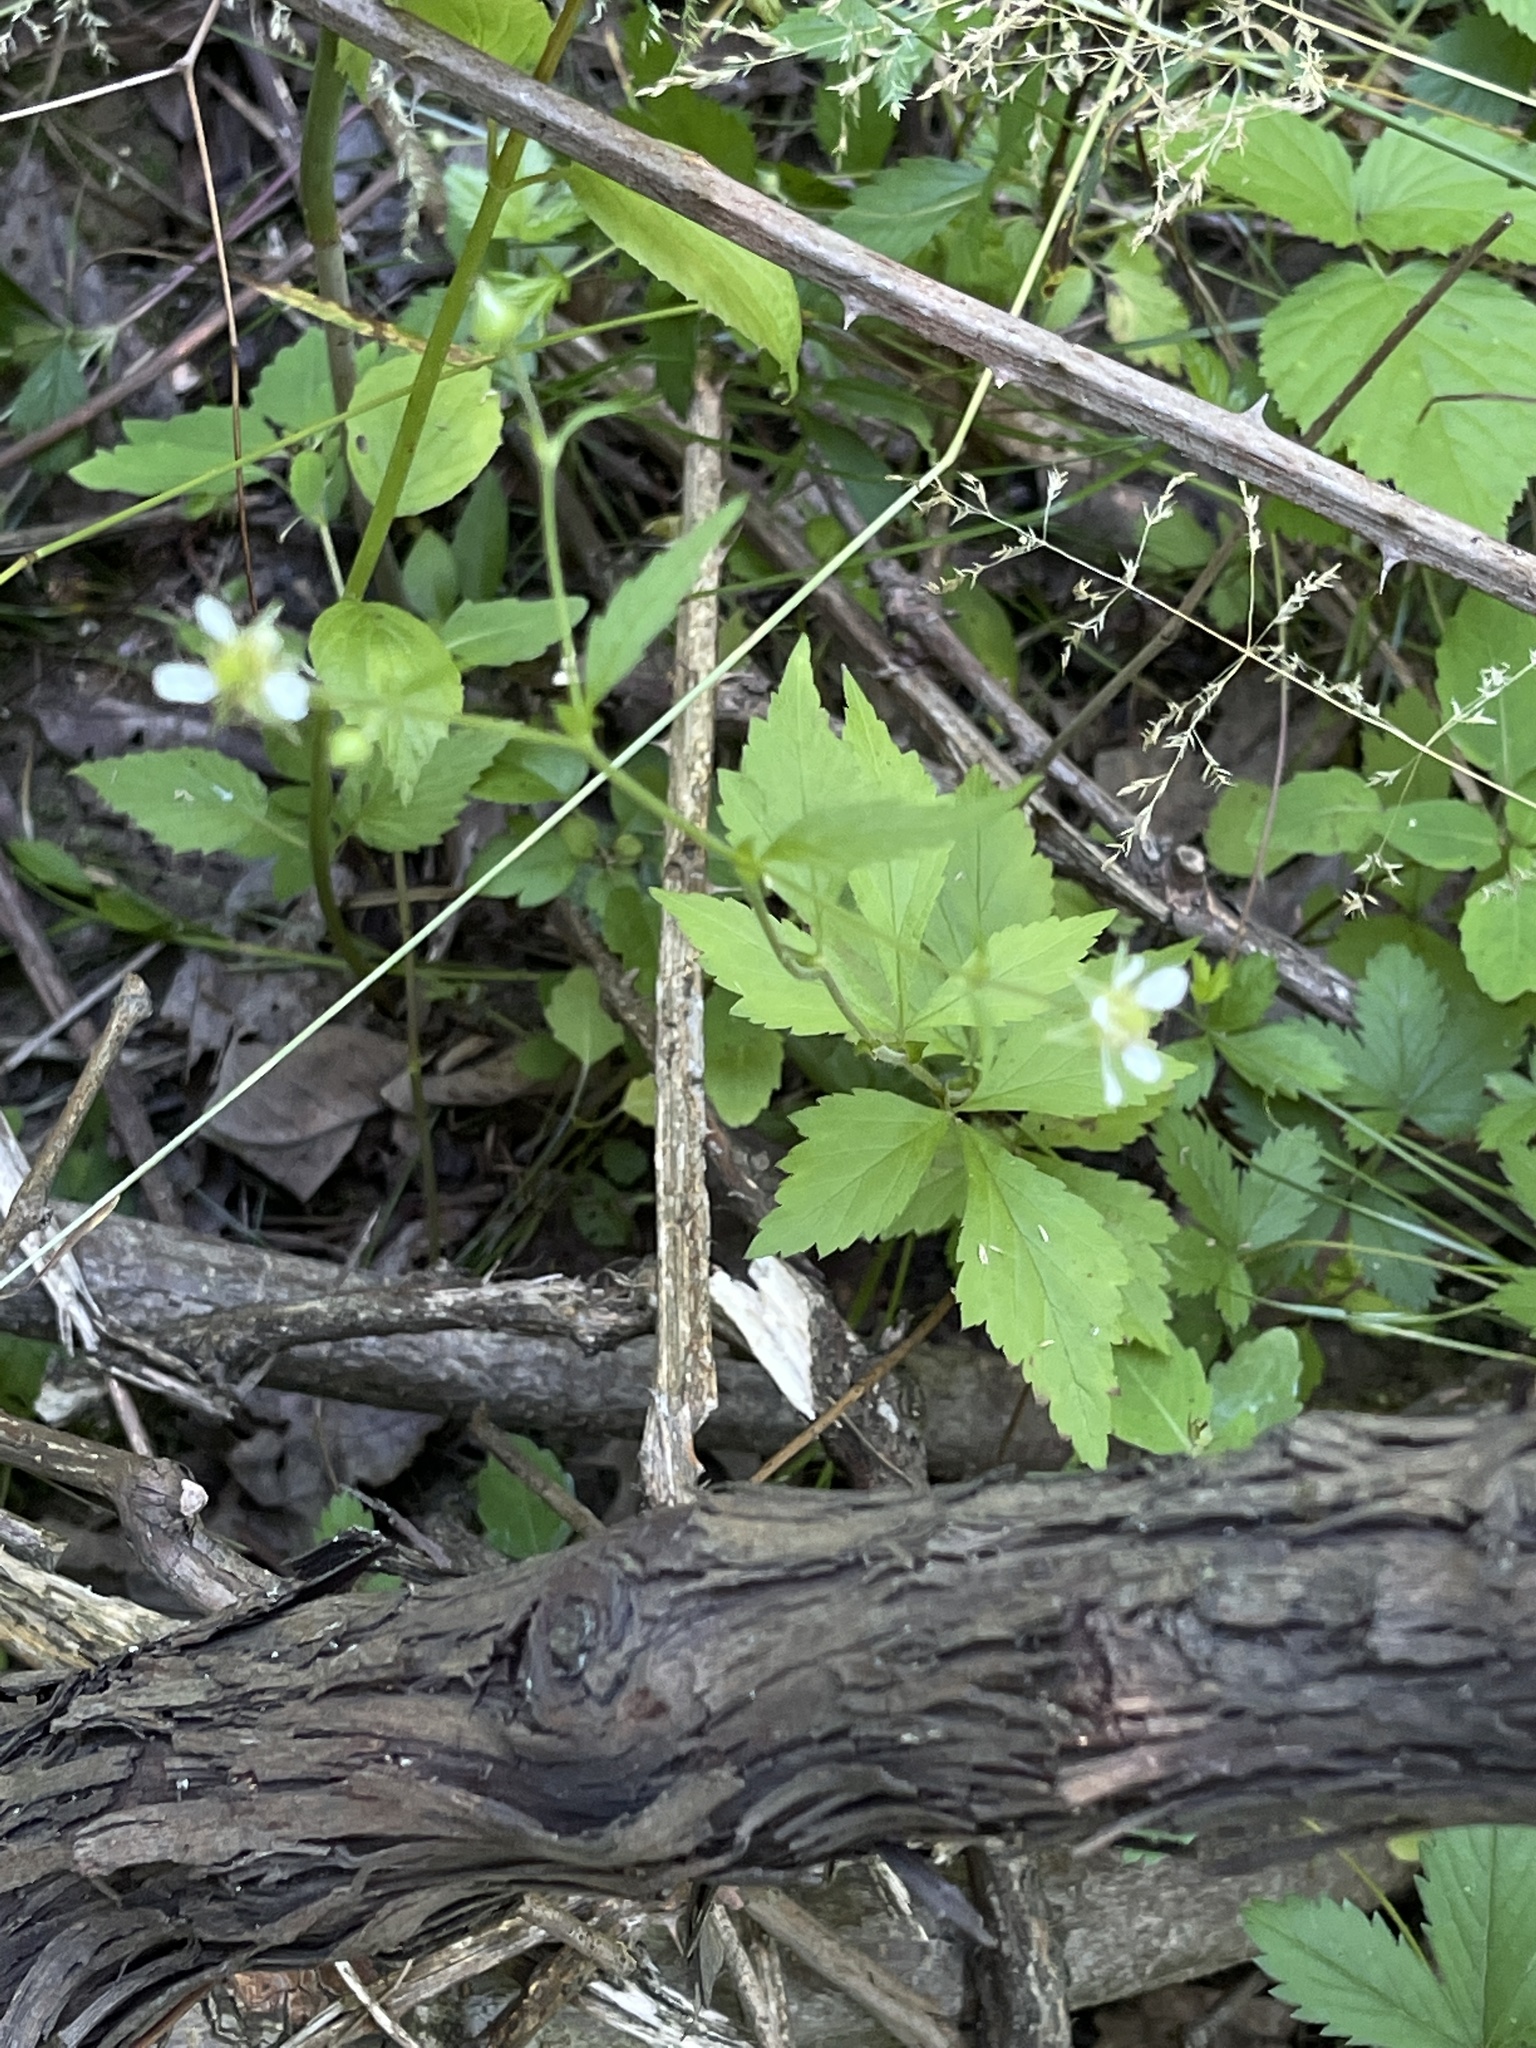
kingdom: Plantae
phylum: Tracheophyta
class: Magnoliopsida
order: Rosales
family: Rosaceae
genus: Geum
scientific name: Geum canadense
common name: White avens
